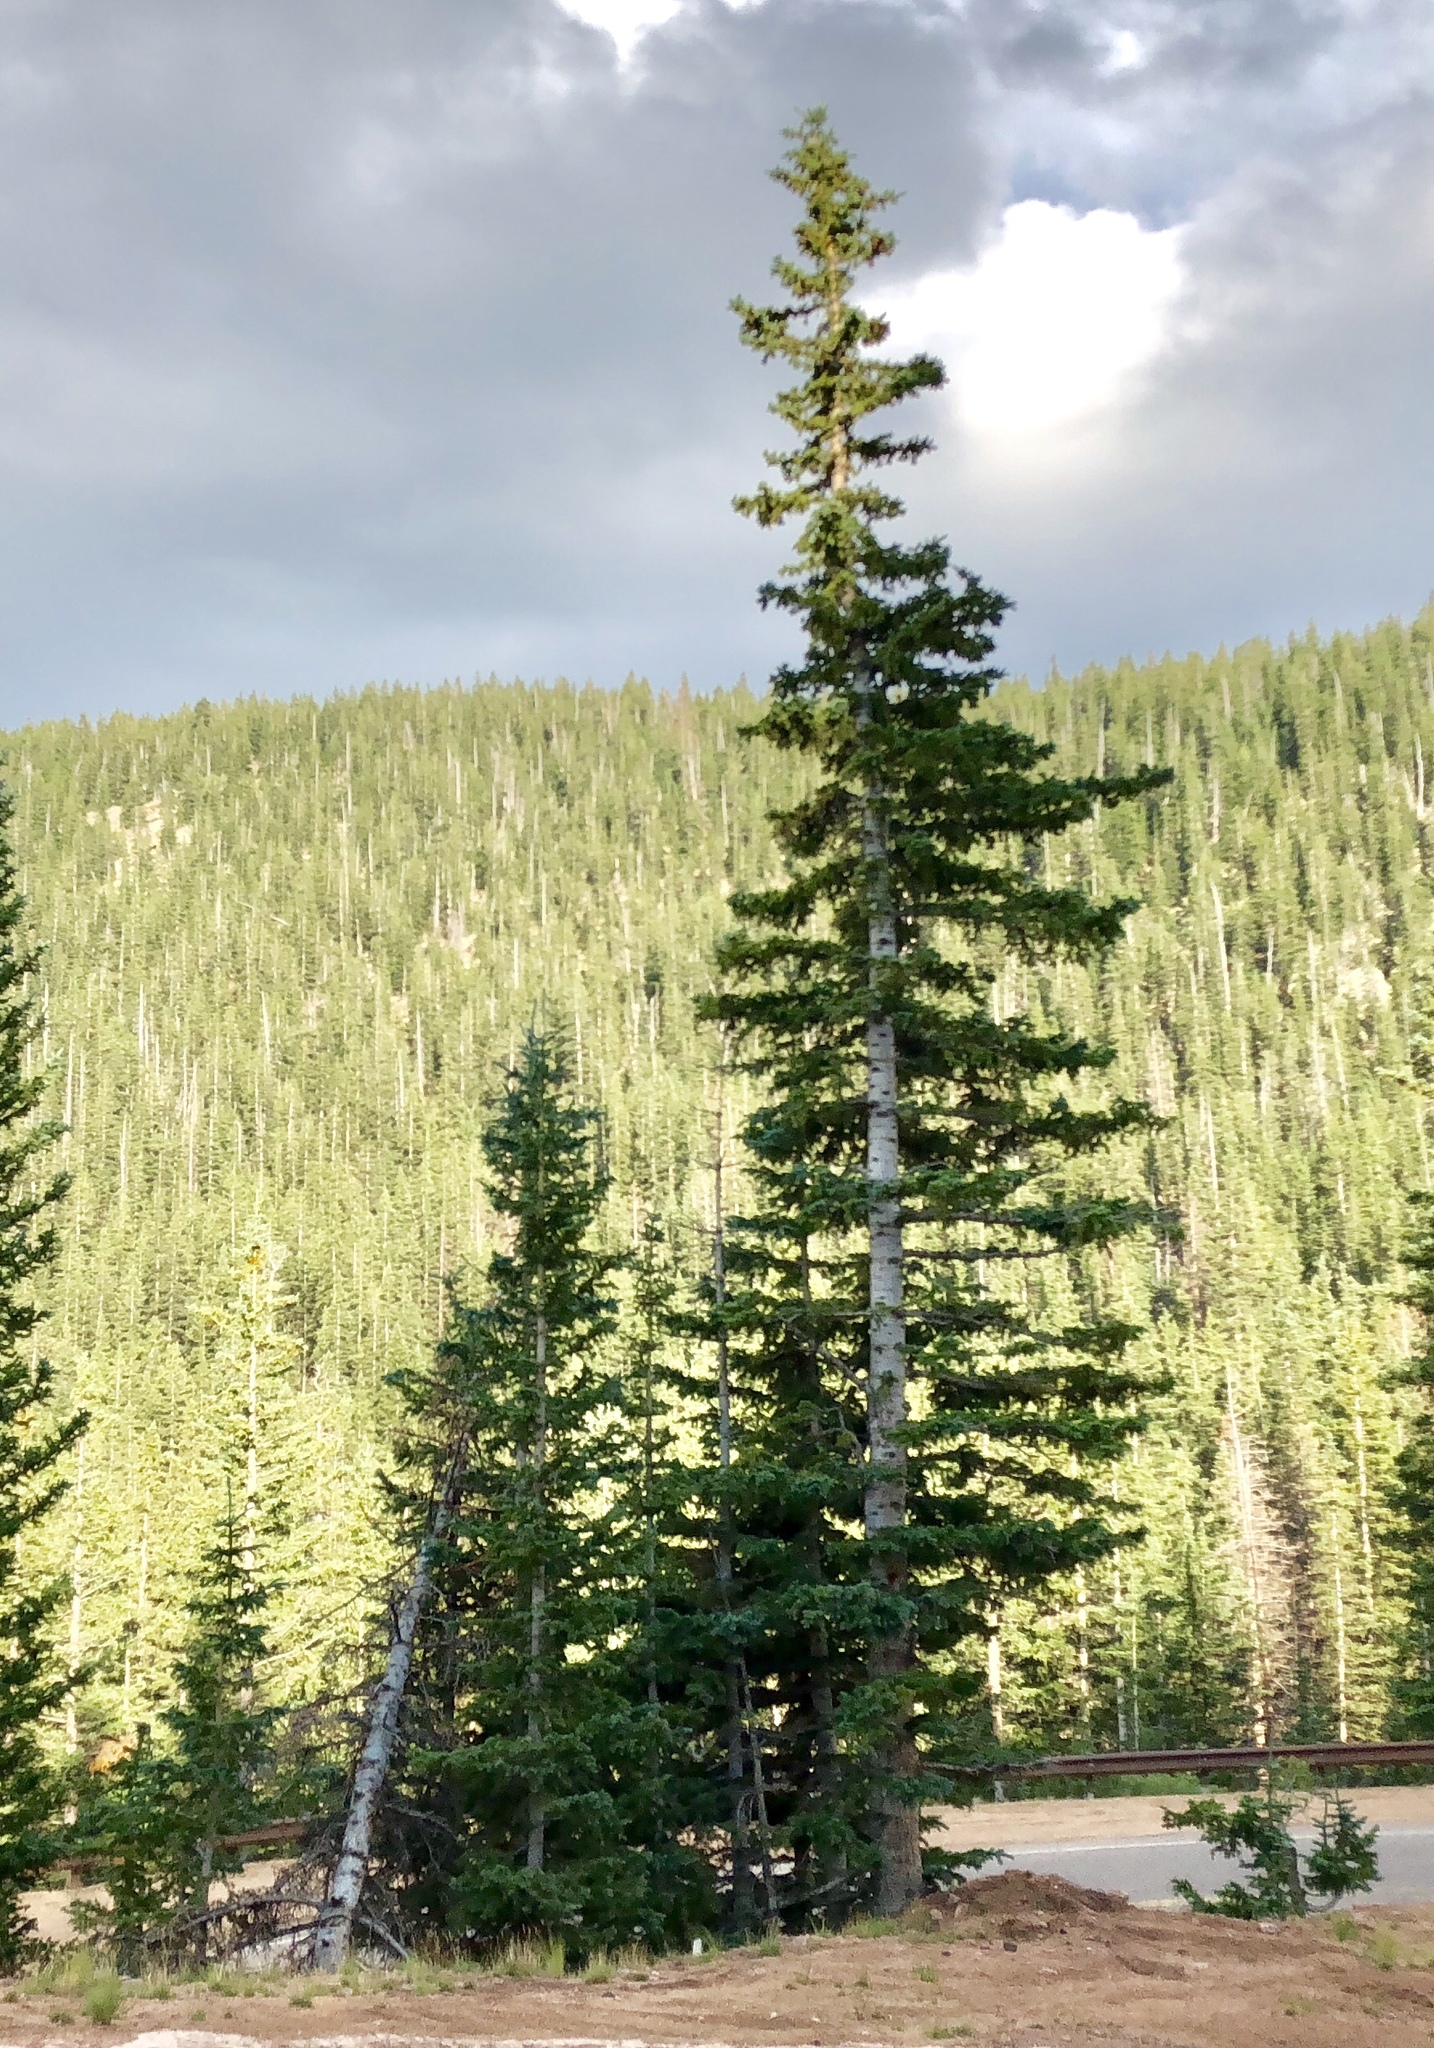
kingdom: Plantae
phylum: Tracheophyta
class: Pinopsida
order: Pinales
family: Pinaceae
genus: Picea
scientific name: Picea engelmannii
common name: Engelmann spruce
